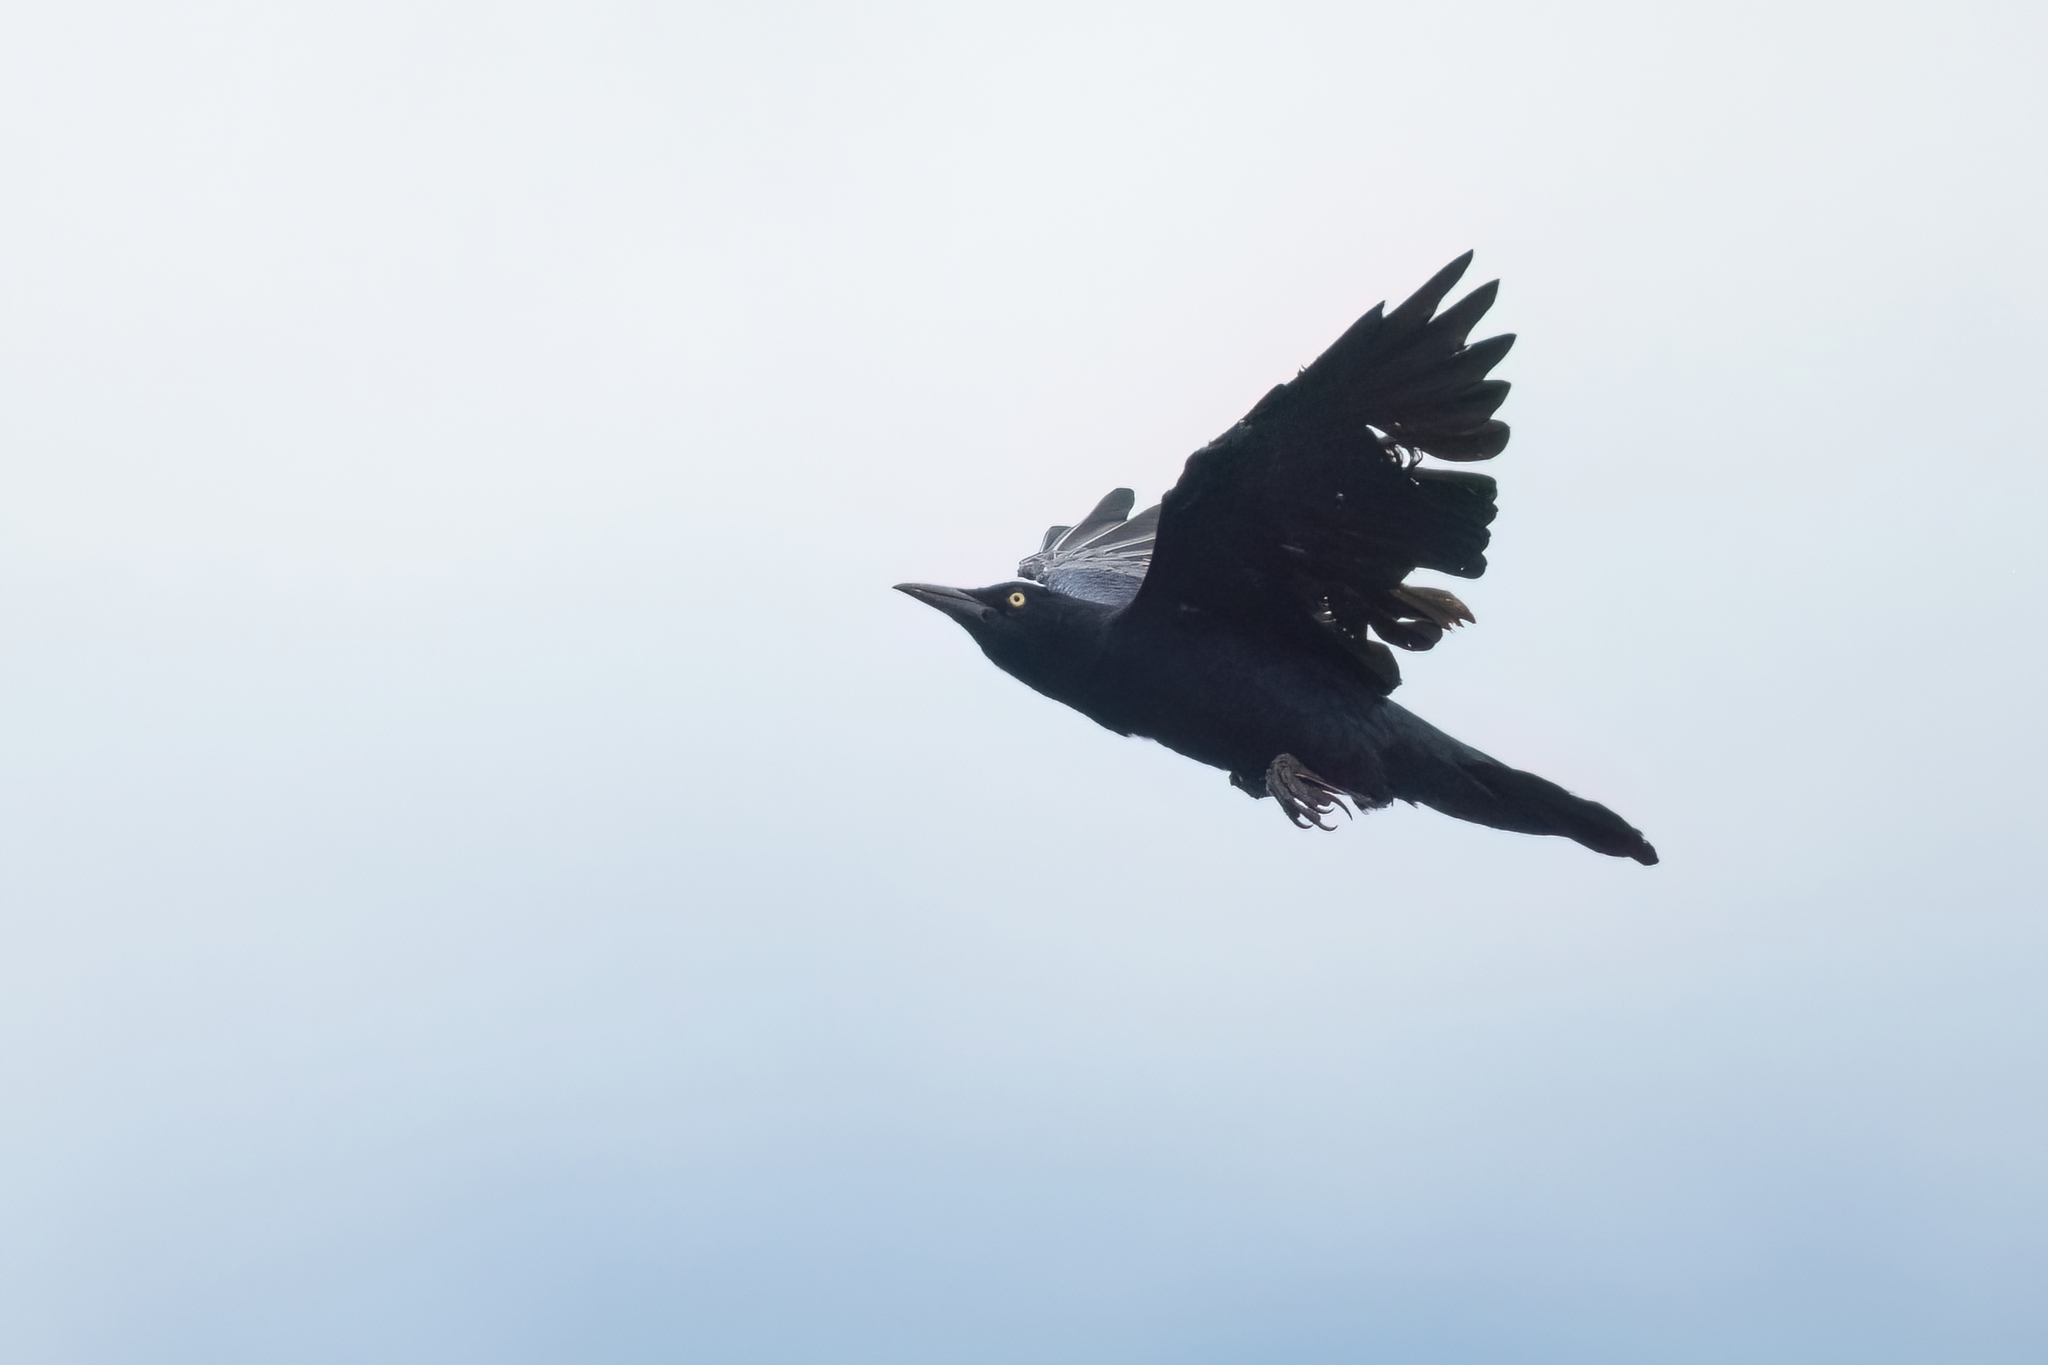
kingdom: Animalia
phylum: Chordata
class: Aves
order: Passeriformes
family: Icteridae
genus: Quiscalus
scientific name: Quiscalus mexicanus
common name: Great-tailed grackle
